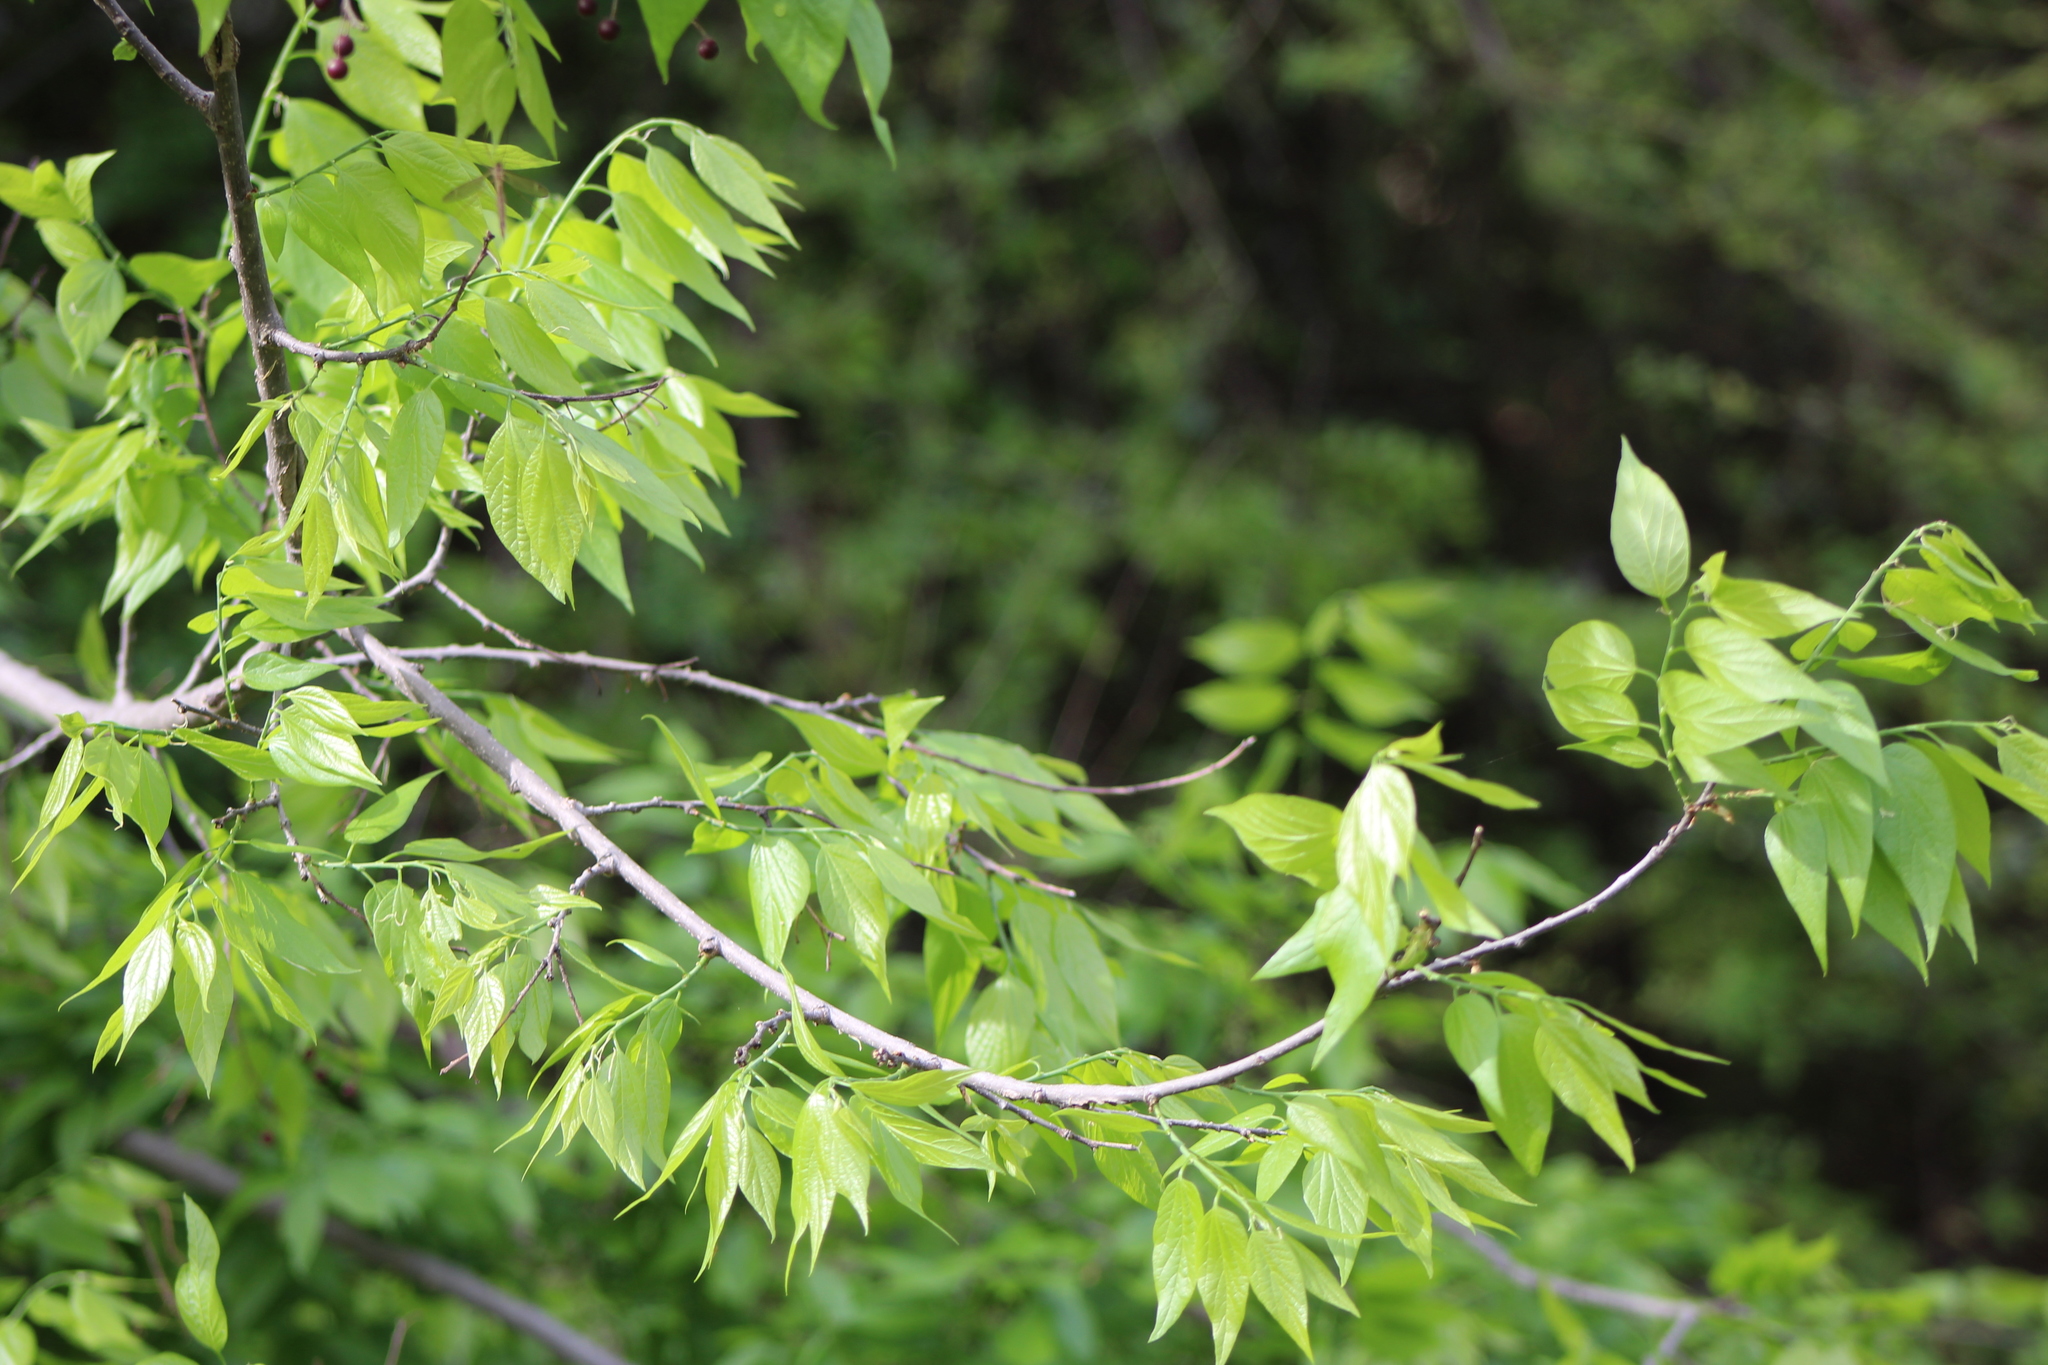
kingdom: Plantae
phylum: Tracheophyta
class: Magnoliopsida
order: Rosales
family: Cannabaceae
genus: Celtis
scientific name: Celtis laevigata
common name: Sugarberry
